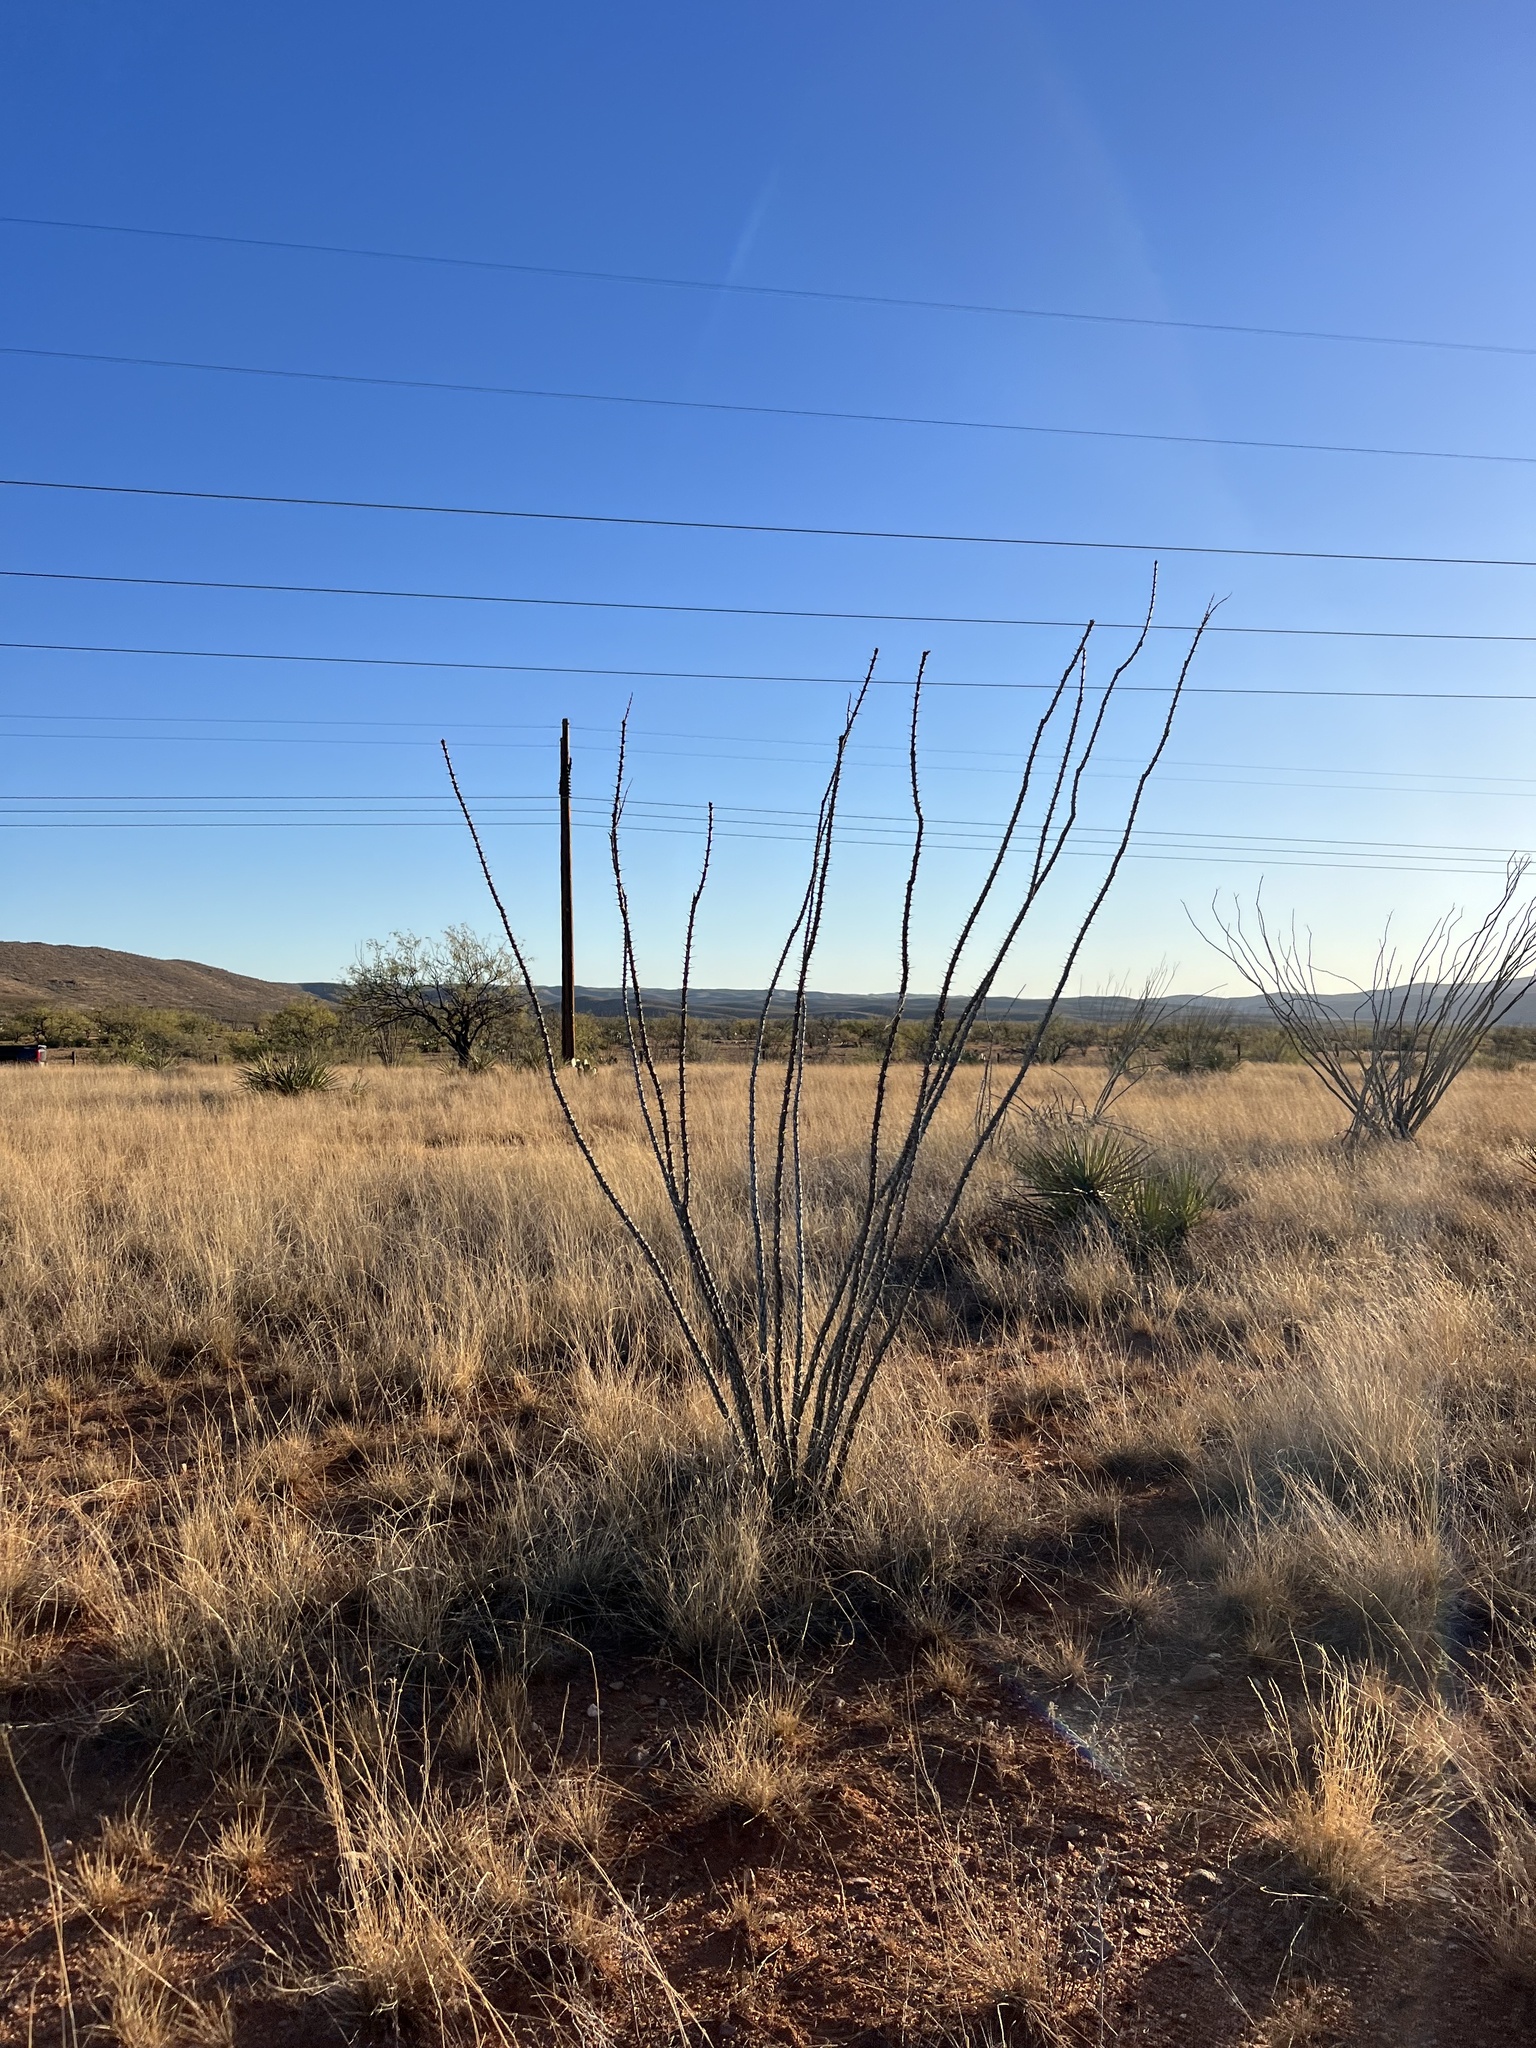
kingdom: Plantae
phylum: Tracheophyta
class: Magnoliopsida
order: Ericales
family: Fouquieriaceae
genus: Fouquieria
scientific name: Fouquieria splendens
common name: Vine-cactus
